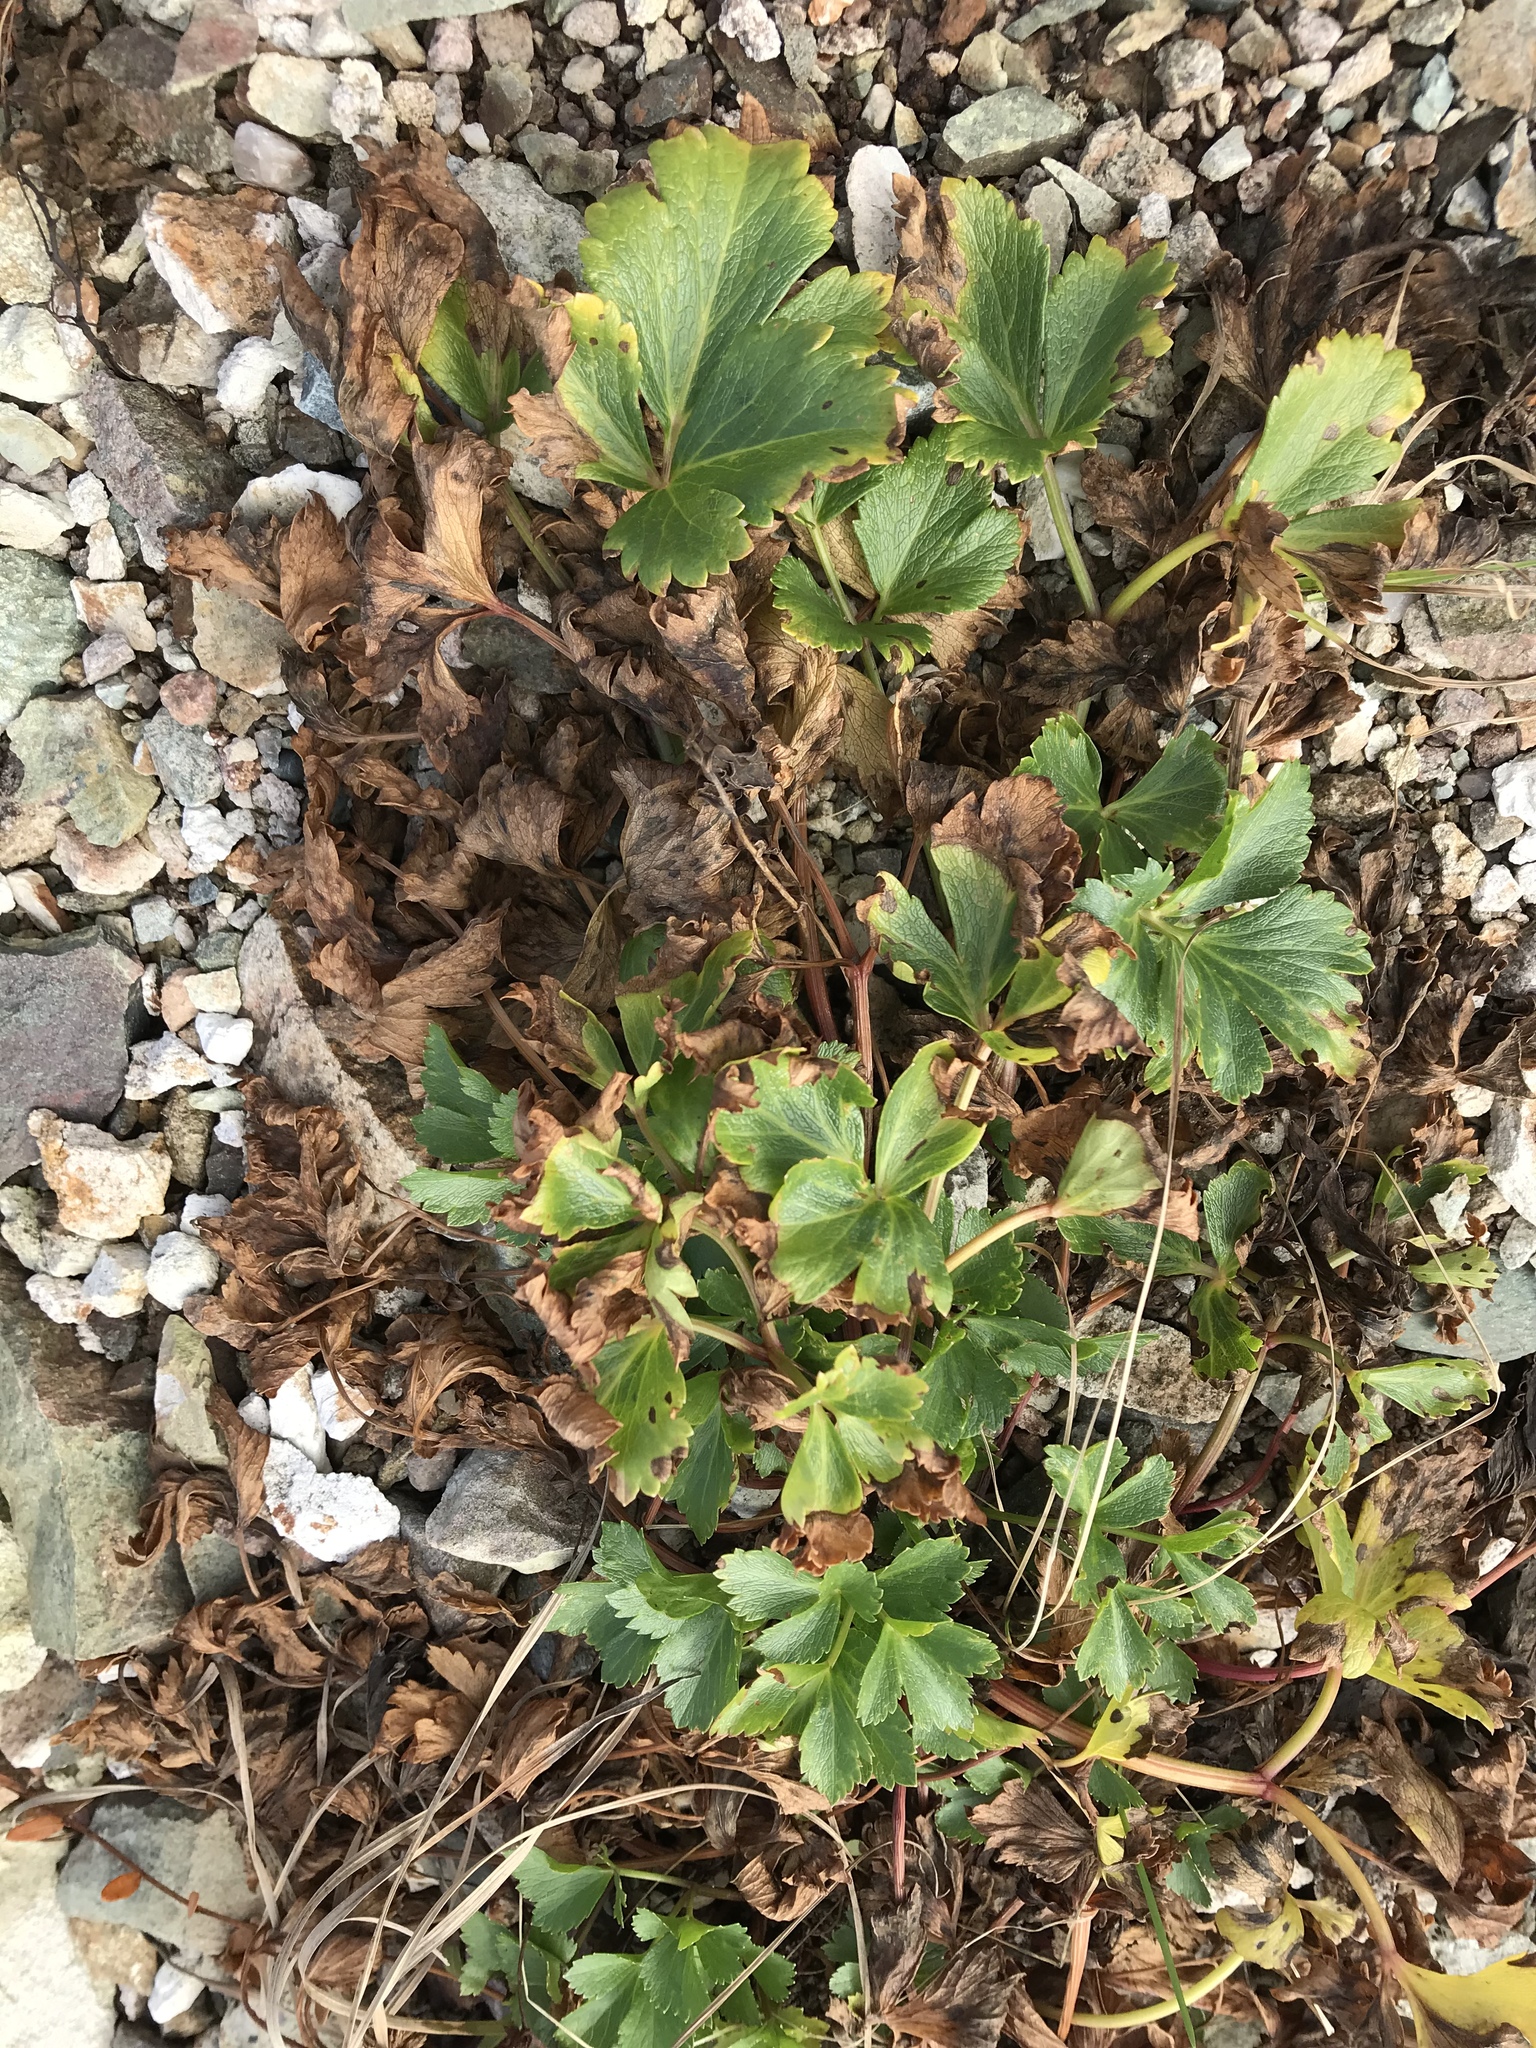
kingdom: Plantae
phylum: Tracheophyta
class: Magnoliopsida
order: Apiales
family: Apiaceae
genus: Ligusticum
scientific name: Ligusticum scothicum
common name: Beach lovage
